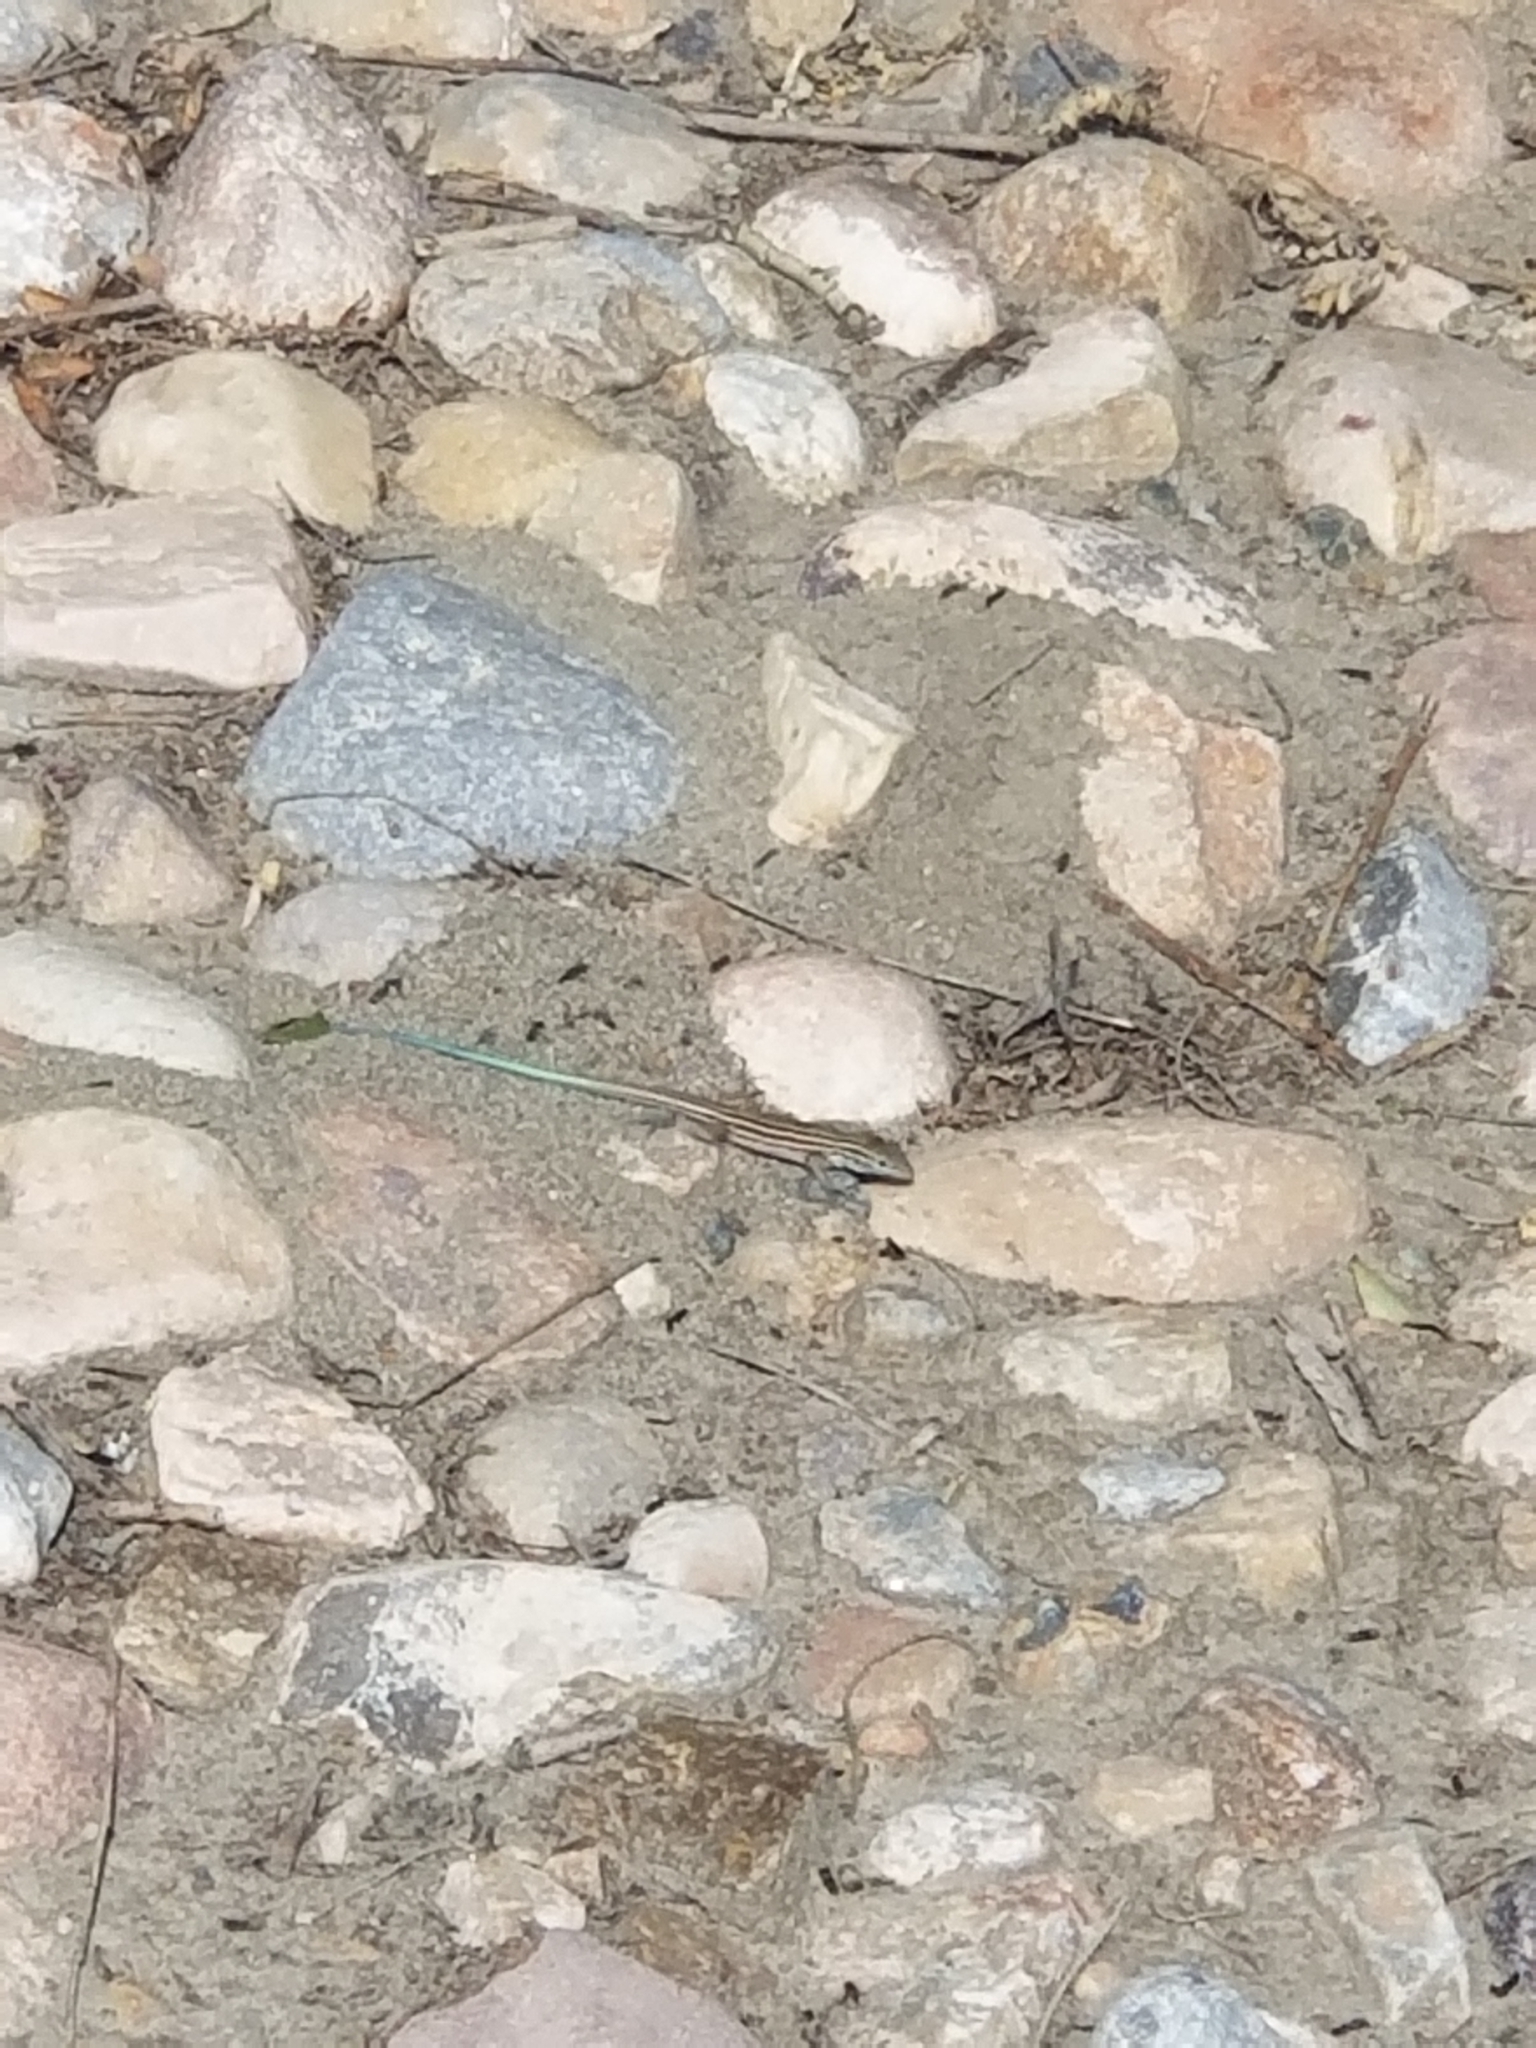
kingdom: Animalia
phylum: Chordata
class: Squamata
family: Teiidae
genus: Aspidoscelis
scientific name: Aspidoscelis neomexicanus
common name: New mexico whiptail
